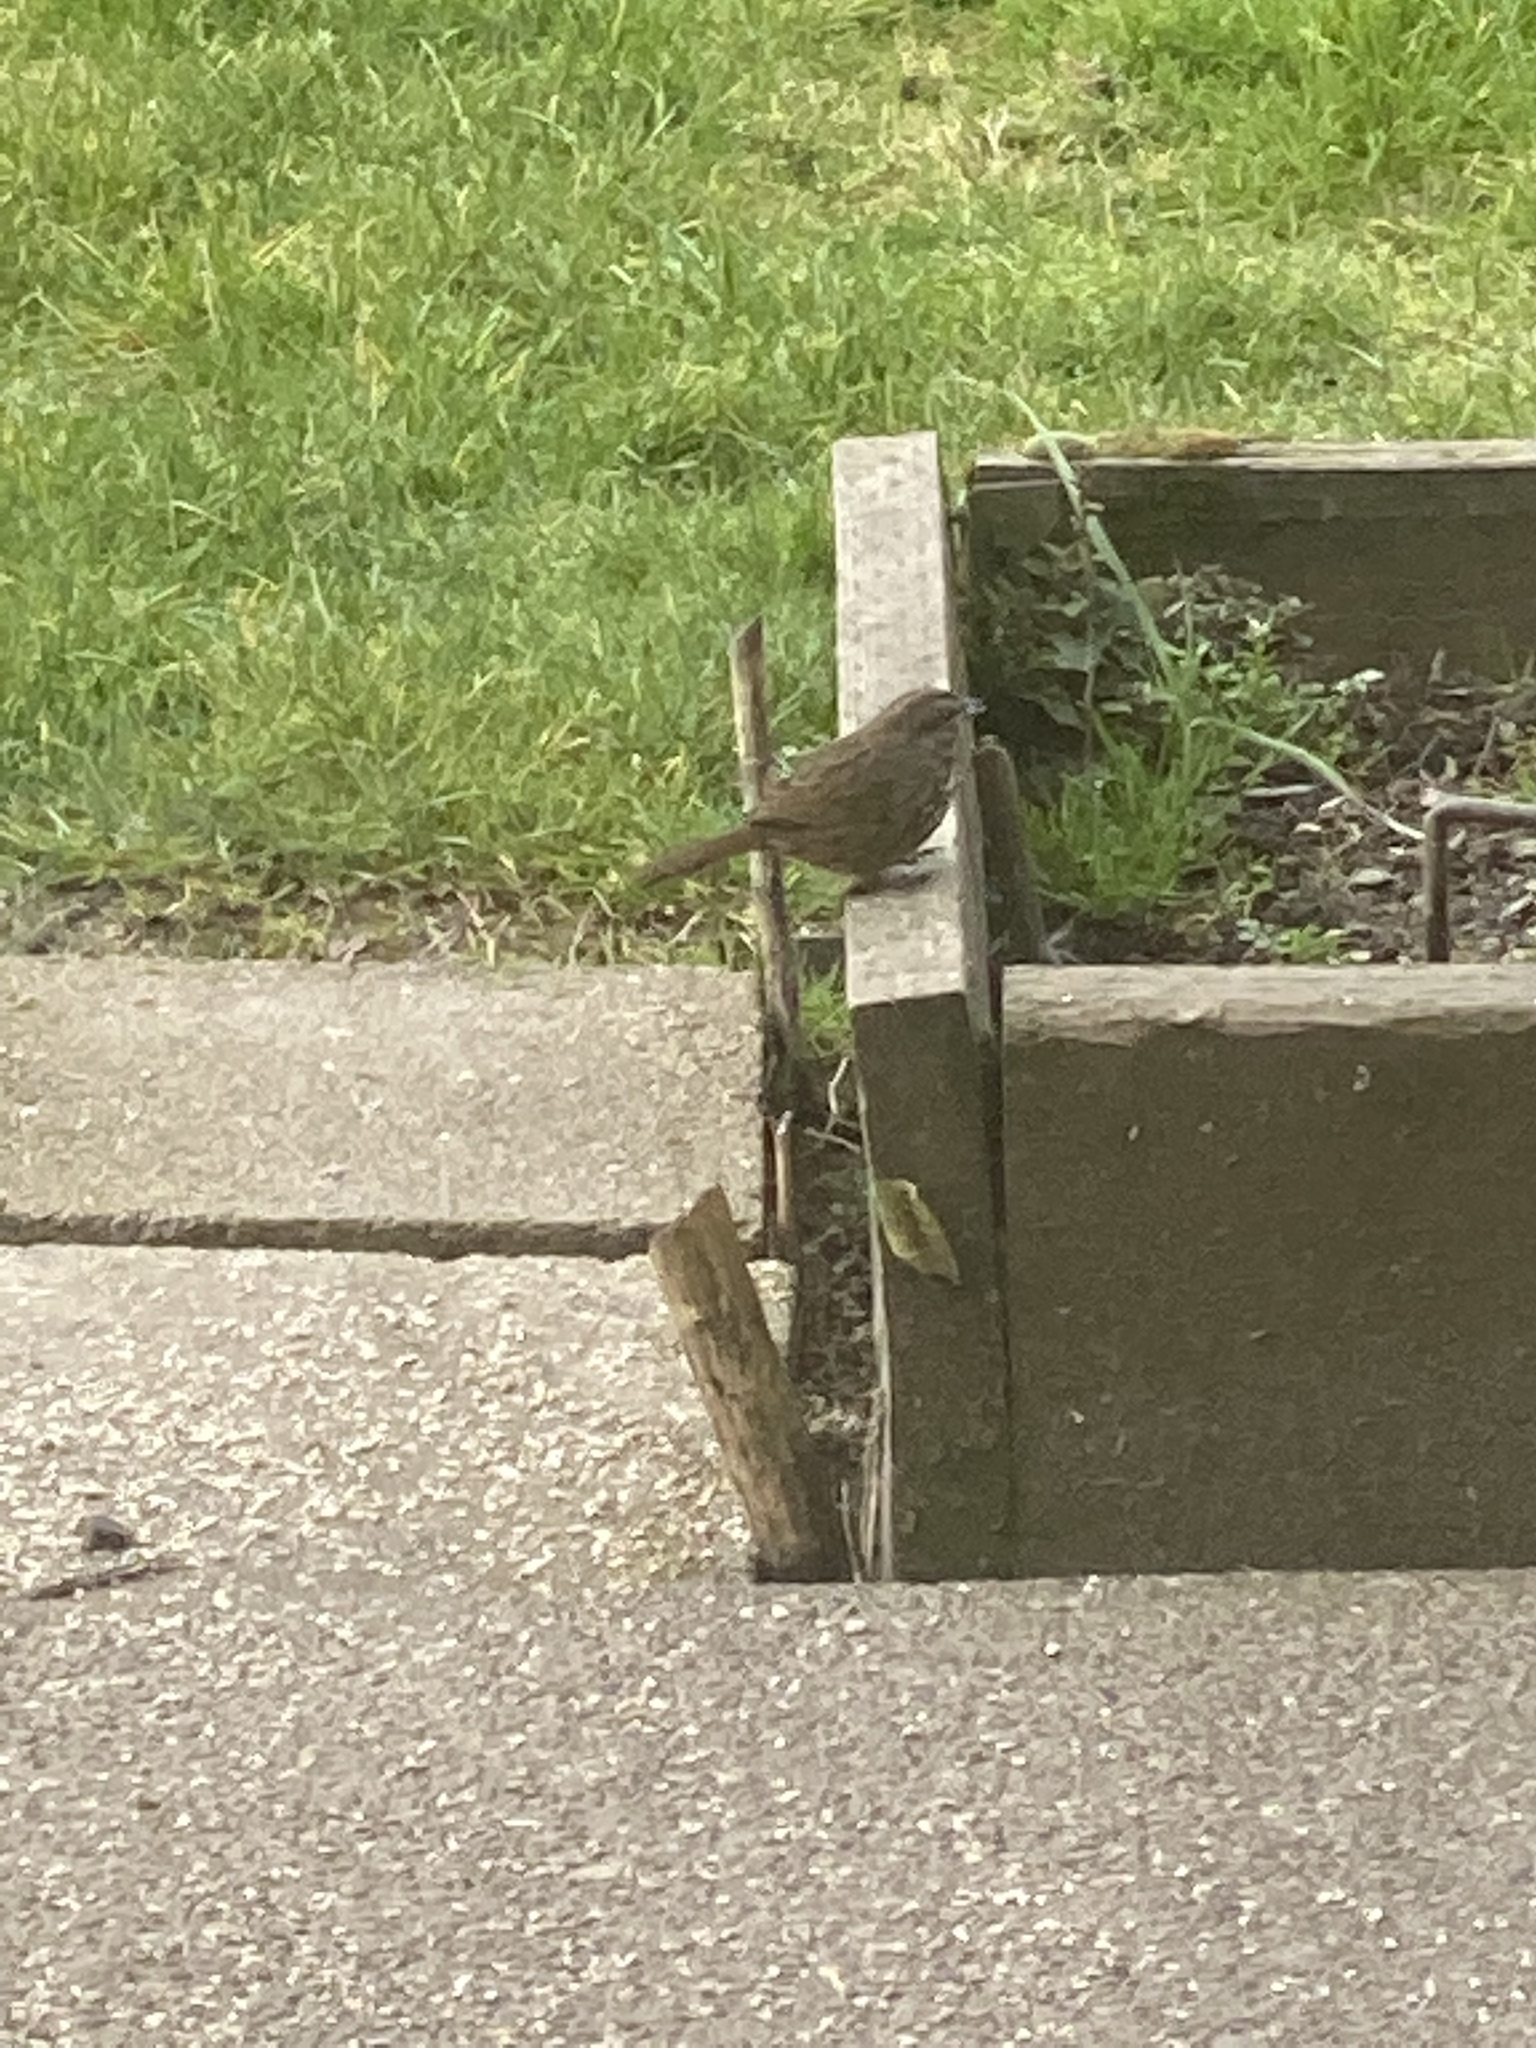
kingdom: Animalia
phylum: Chordata
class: Aves
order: Passeriformes
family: Passerellidae
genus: Melospiza
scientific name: Melospiza melodia
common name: Song sparrow
